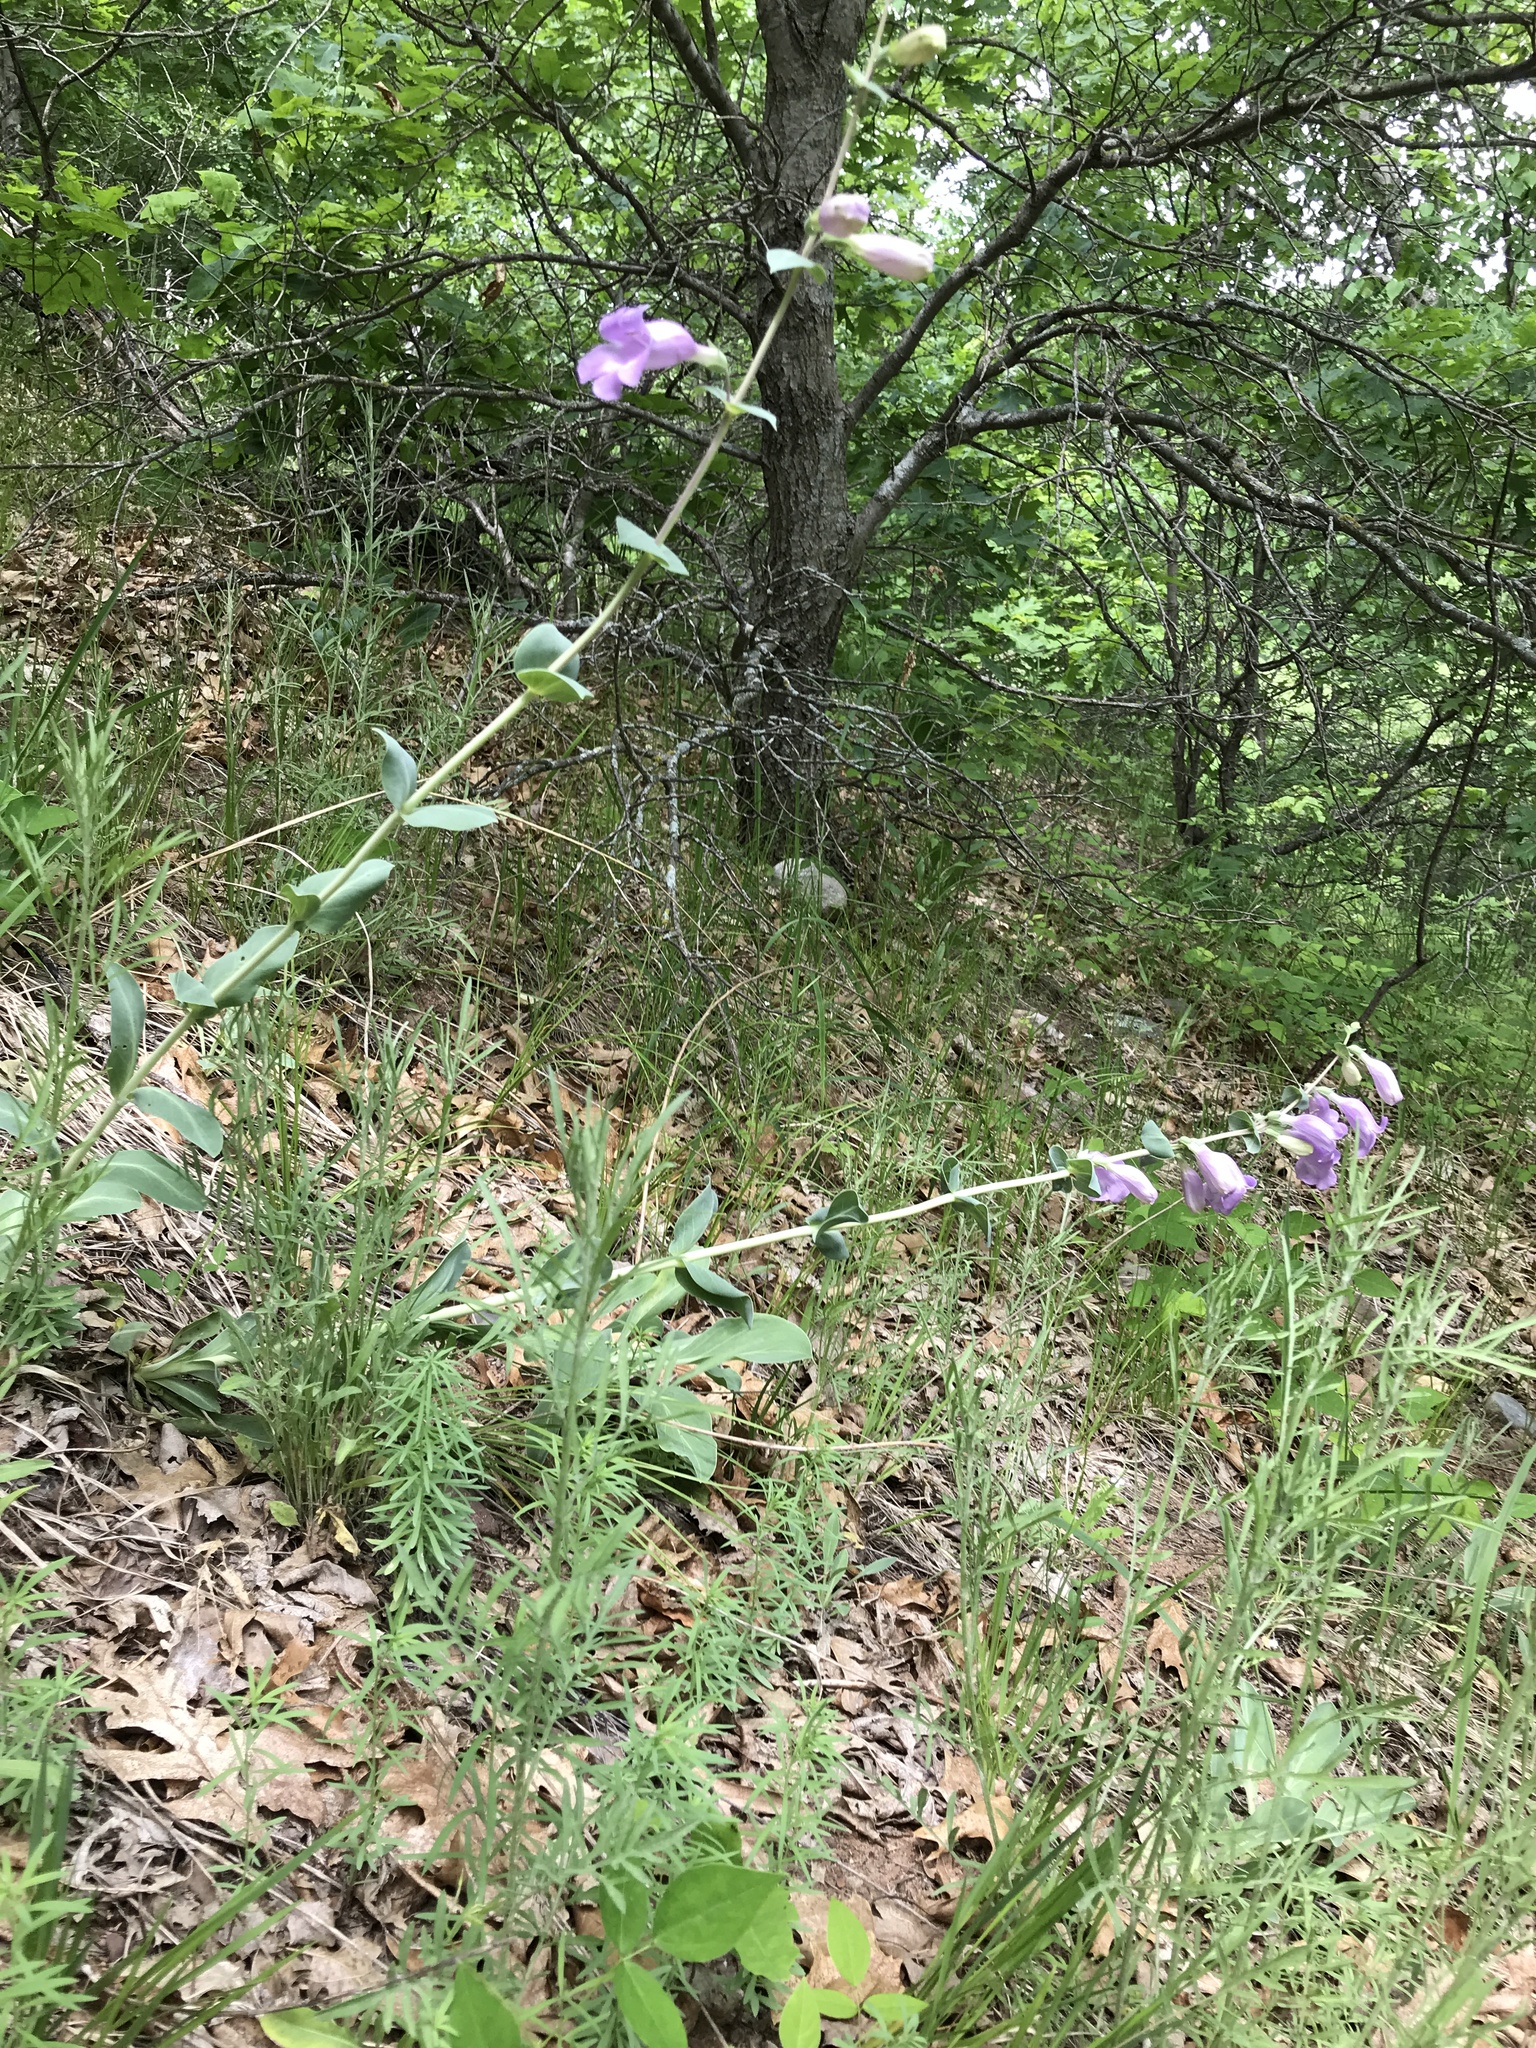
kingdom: Plantae
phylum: Tracheophyta
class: Magnoliopsida
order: Lamiales
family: Plantaginaceae
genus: Penstemon
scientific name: Penstemon
